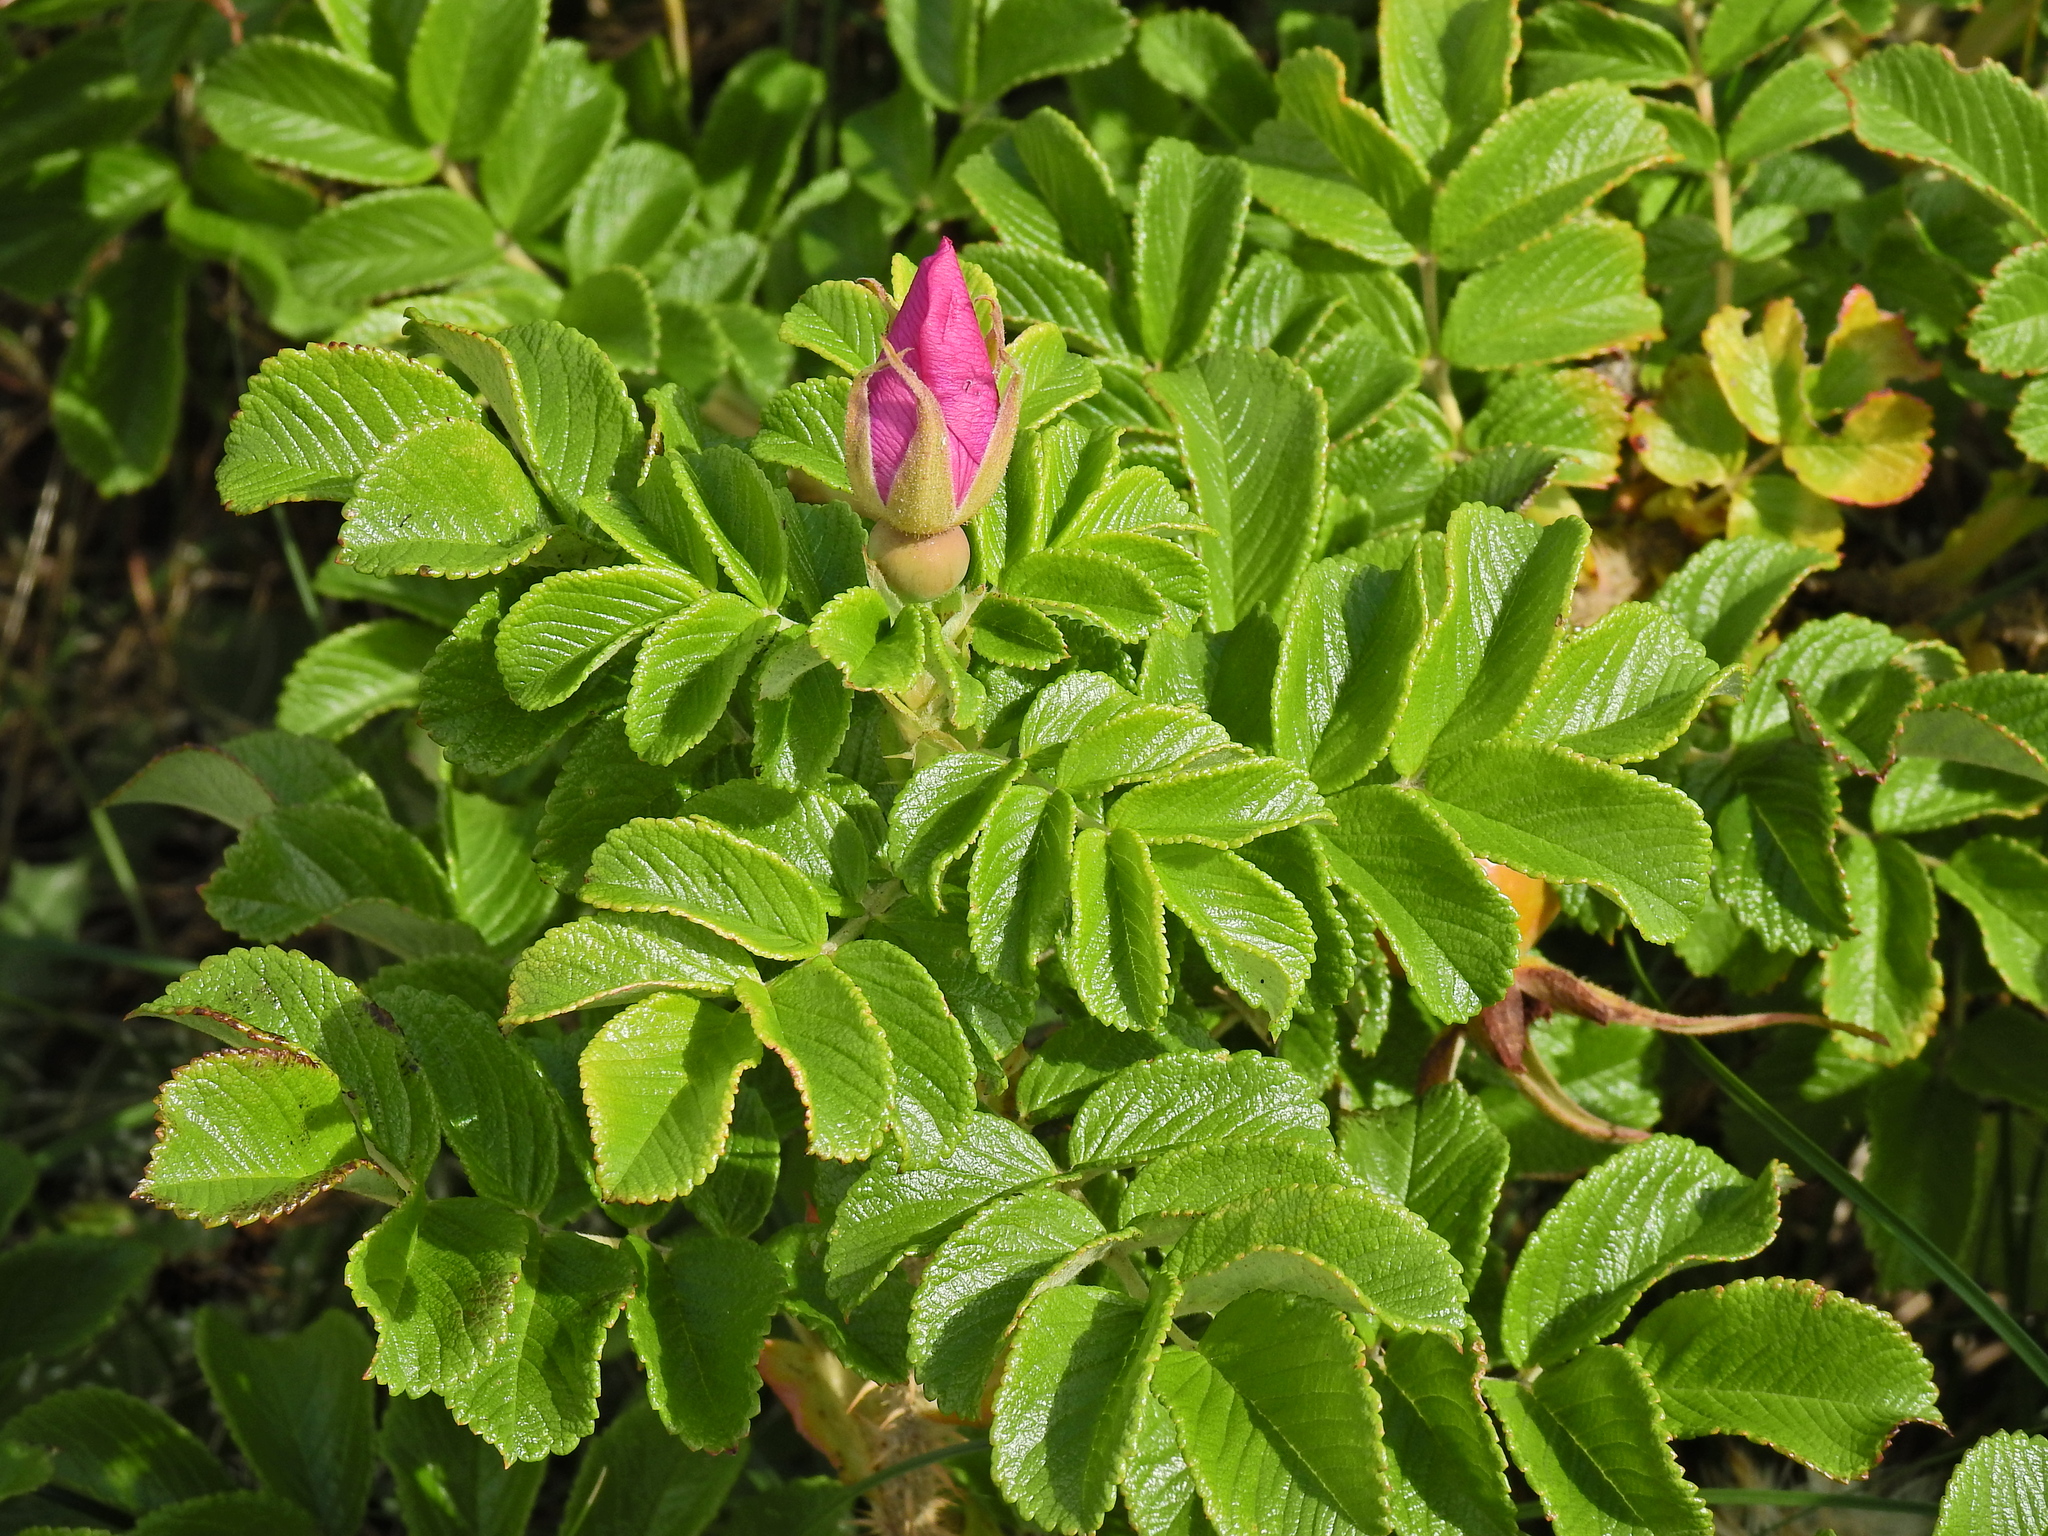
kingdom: Plantae
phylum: Tracheophyta
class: Magnoliopsida
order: Rosales
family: Rosaceae
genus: Rosa
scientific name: Rosa rugosa
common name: Japanese rose
